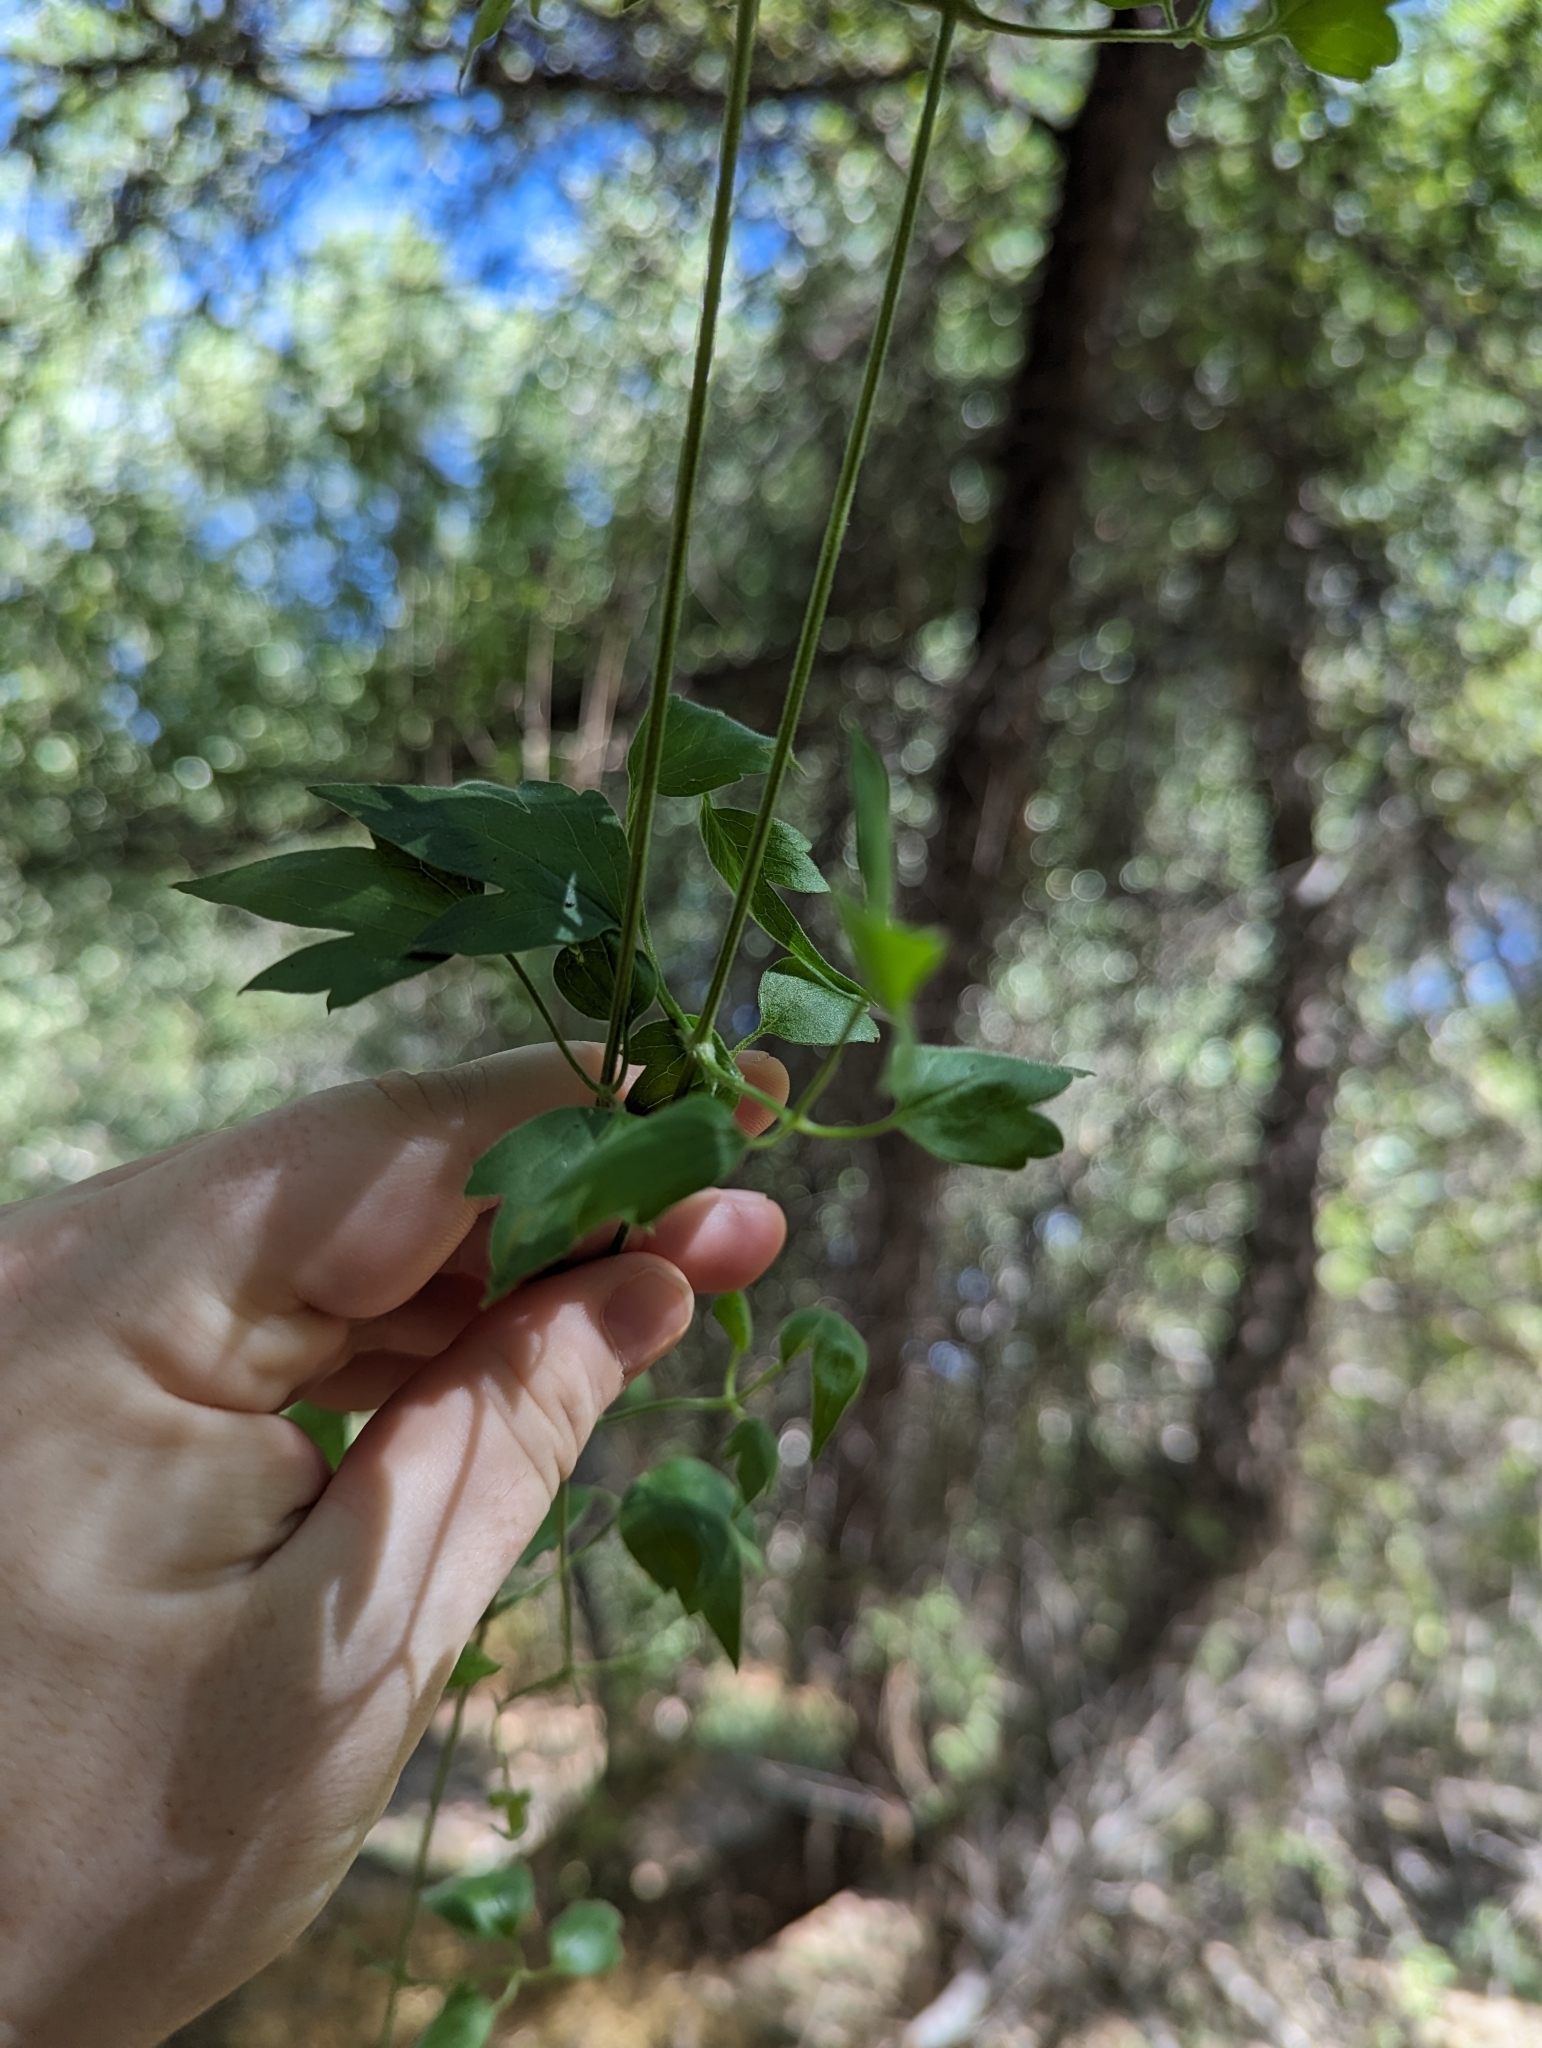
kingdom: Plantae
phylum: Tracheophyta
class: Magnoliopsida
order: Ranunculales
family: Ranunculaceae
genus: Clematis
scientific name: Clematis drummondii
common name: Texas virgin's bower
